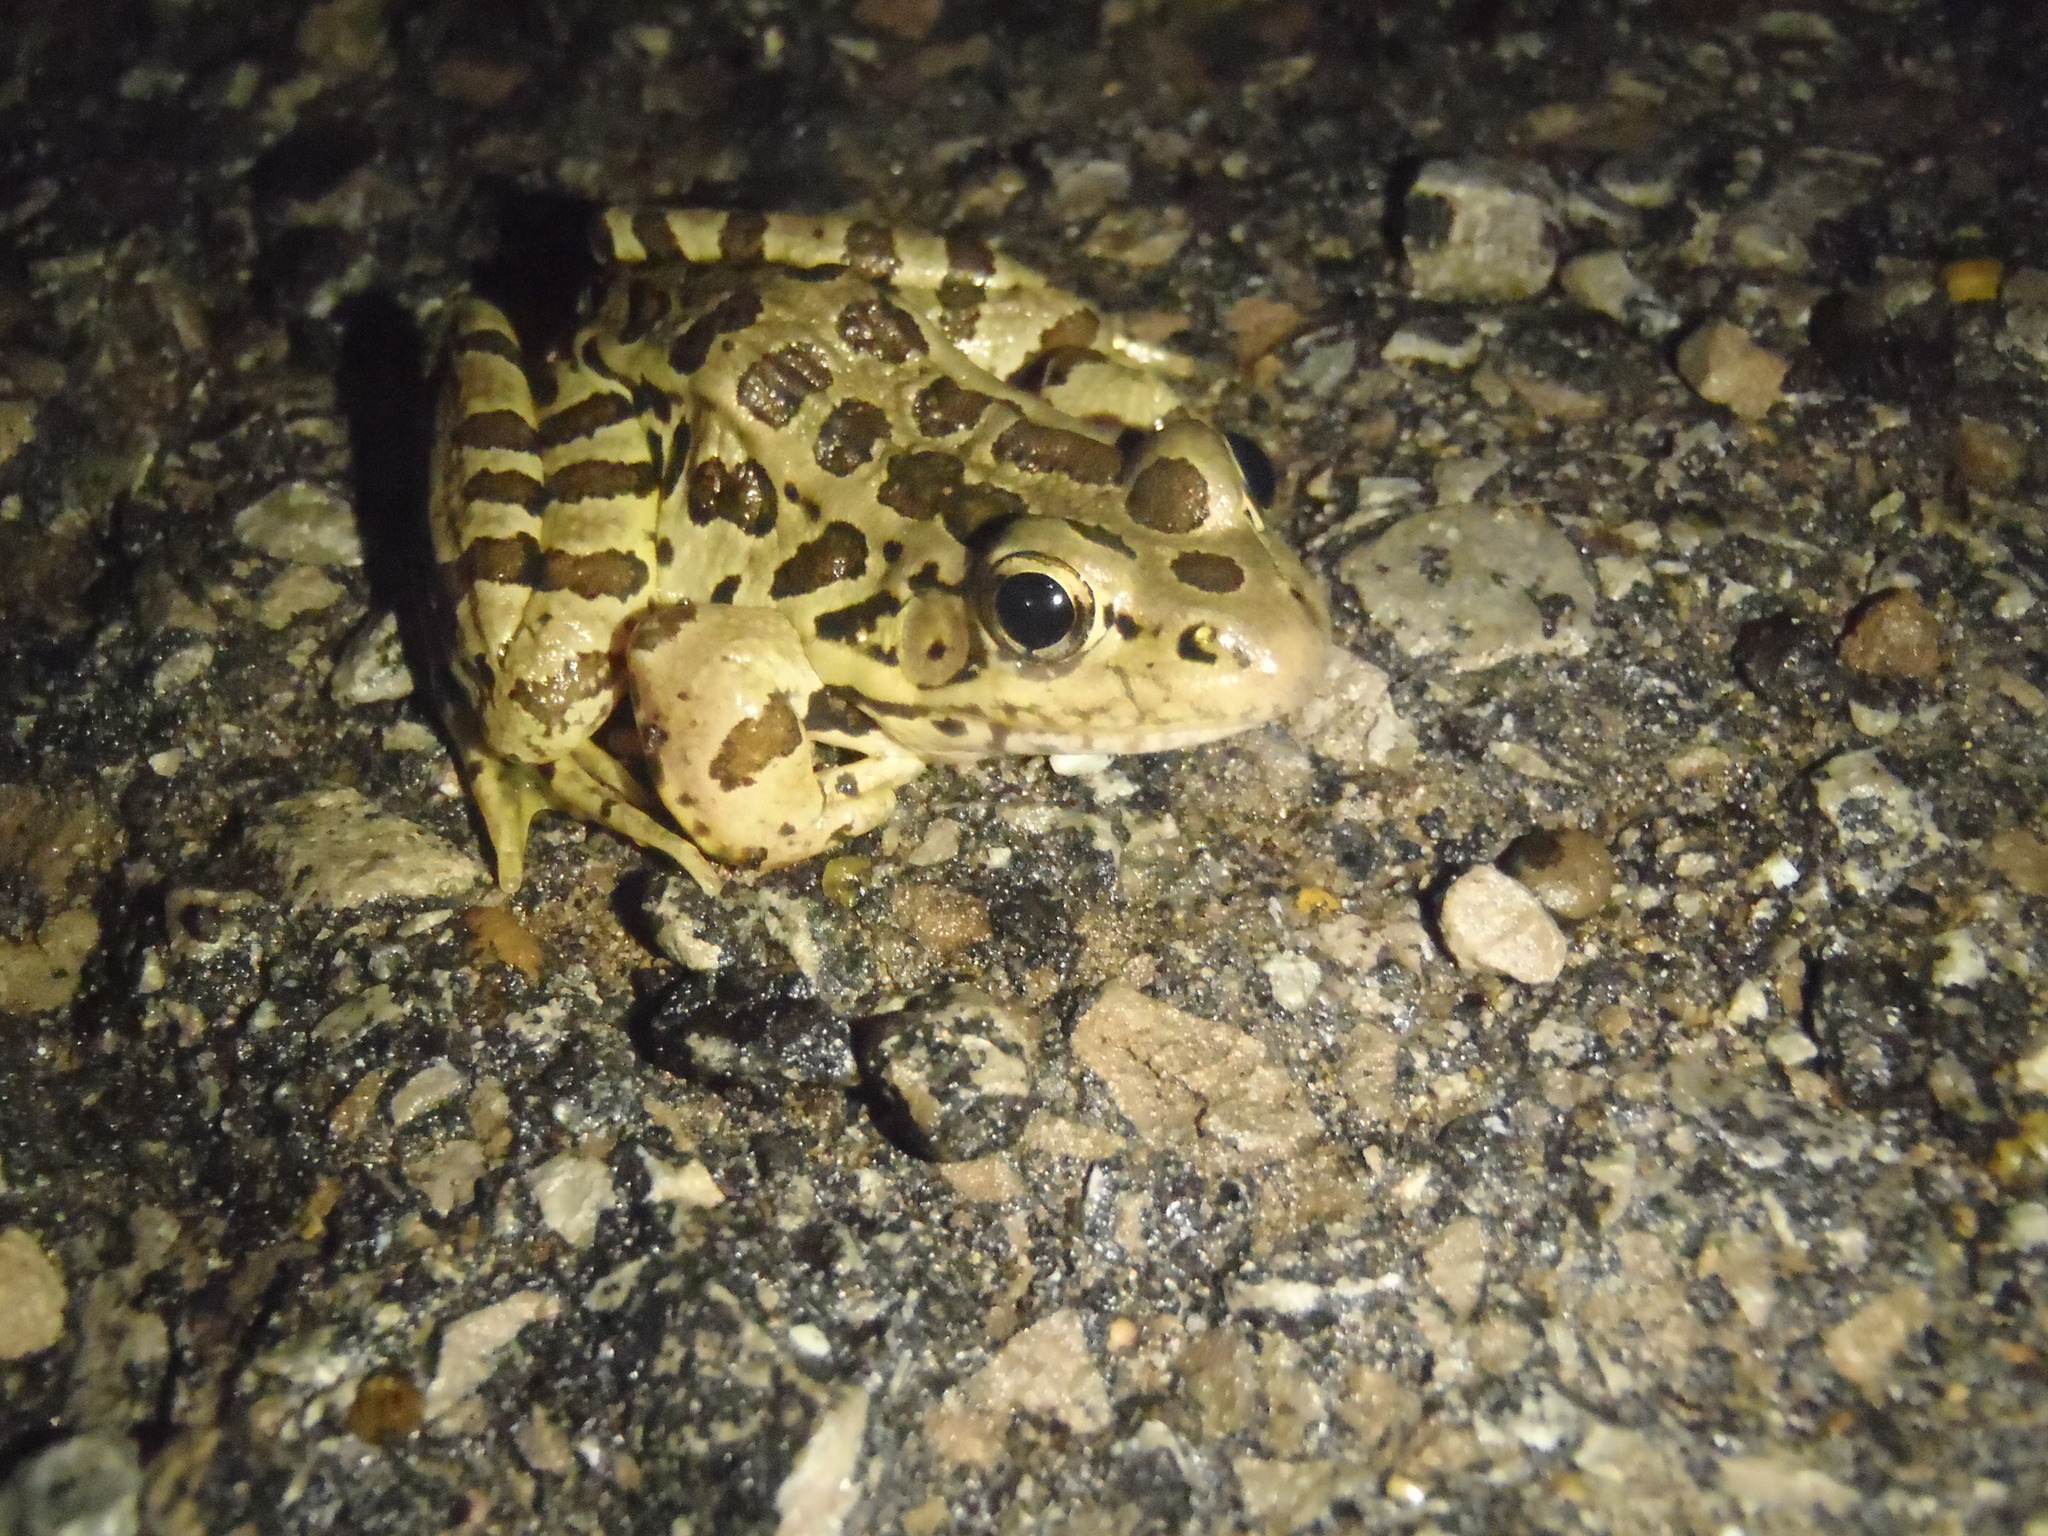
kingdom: Animalia
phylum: Chordata
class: Amphibia
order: Anura
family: Ranidae
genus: Lithobates
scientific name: Lithobates palustris
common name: Pickerel frog
